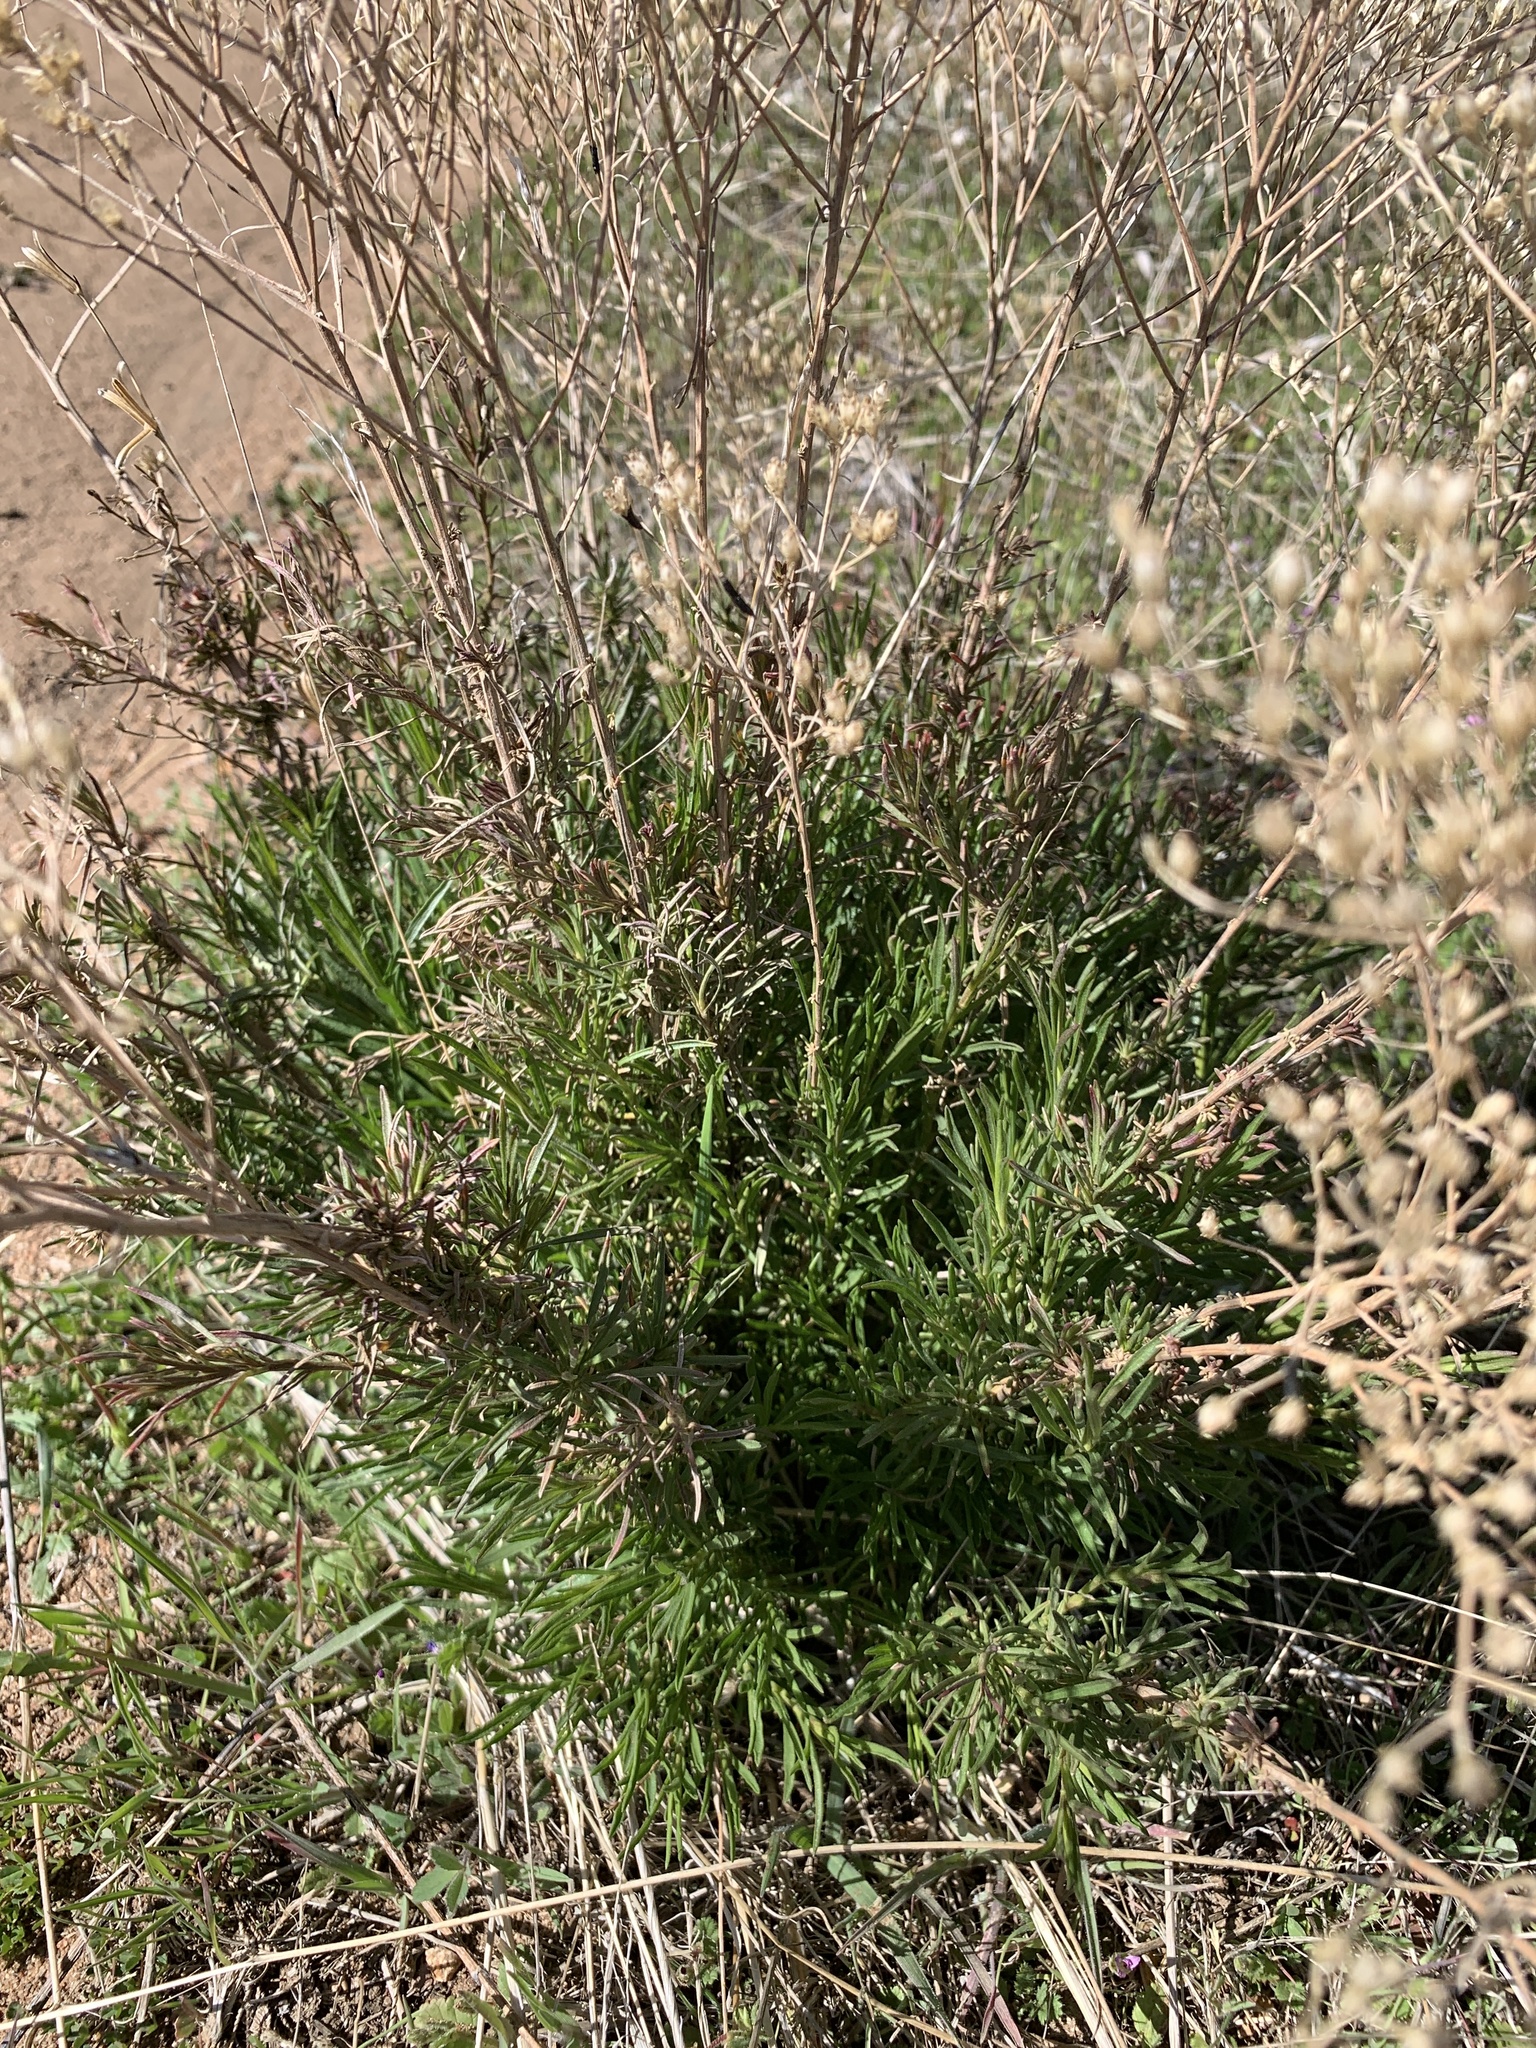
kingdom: Plantae
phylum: Tracheophyta
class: Magnoliopsida
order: Asterales
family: Asteraceae
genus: Gutierrezia
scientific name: Gutierrezia sarothrae
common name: Broom snakeweed
